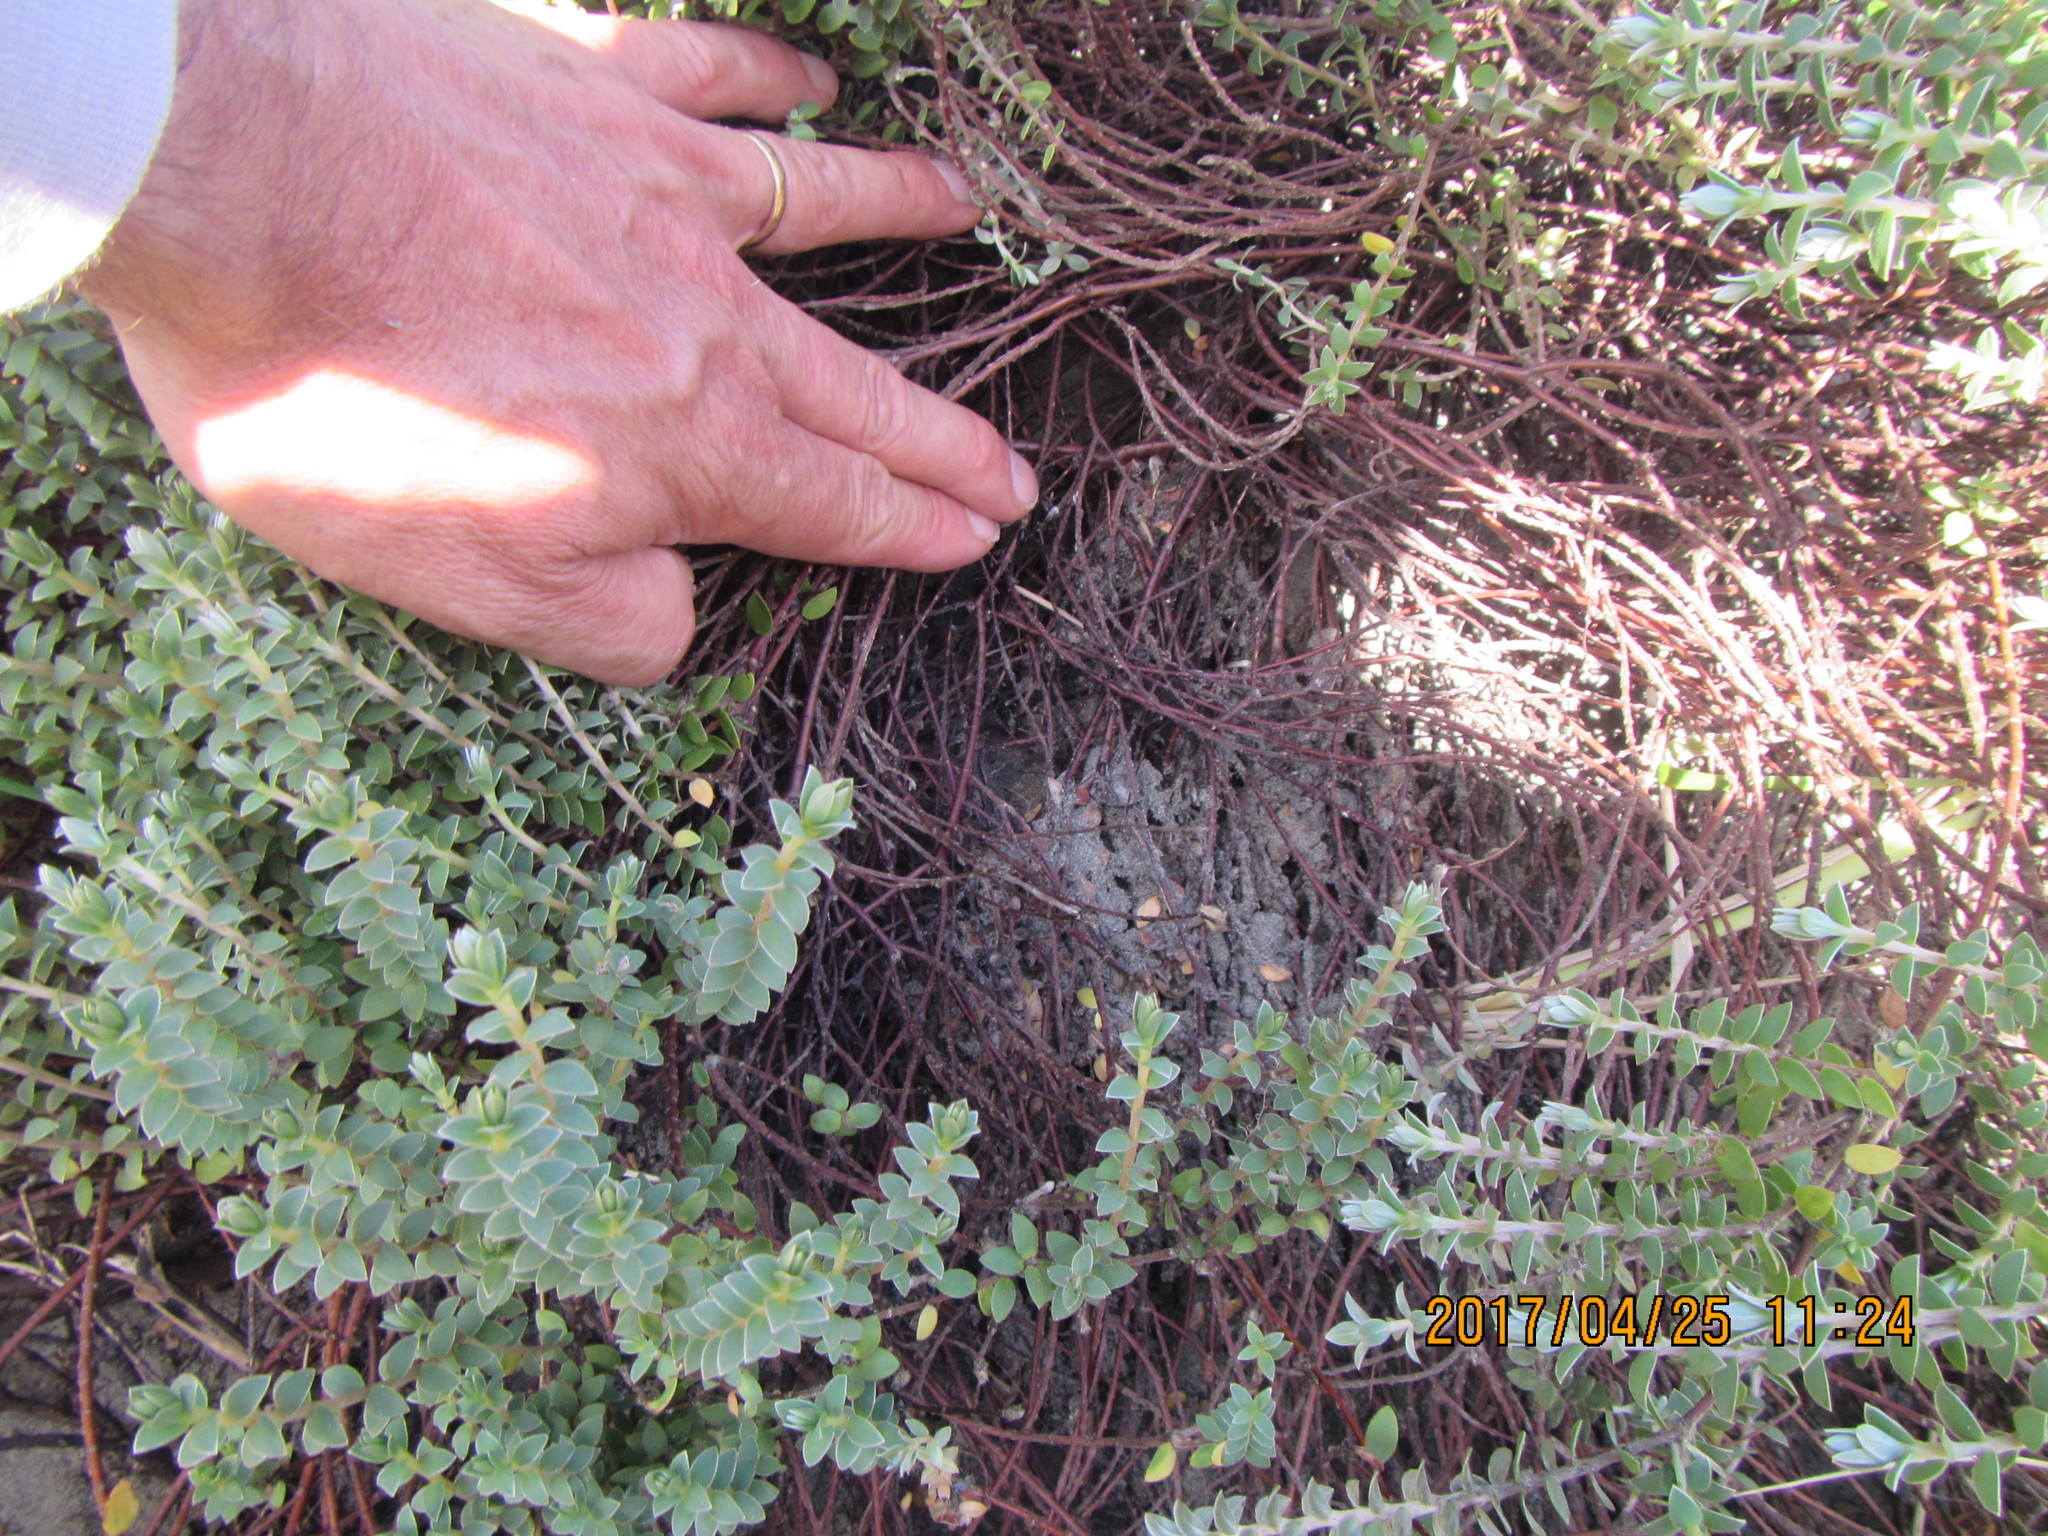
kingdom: Animalia
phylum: Arthropoda
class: Arachnida
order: Araneae
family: Theridiidae
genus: Latrodectus
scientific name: Latrodectus katipo
